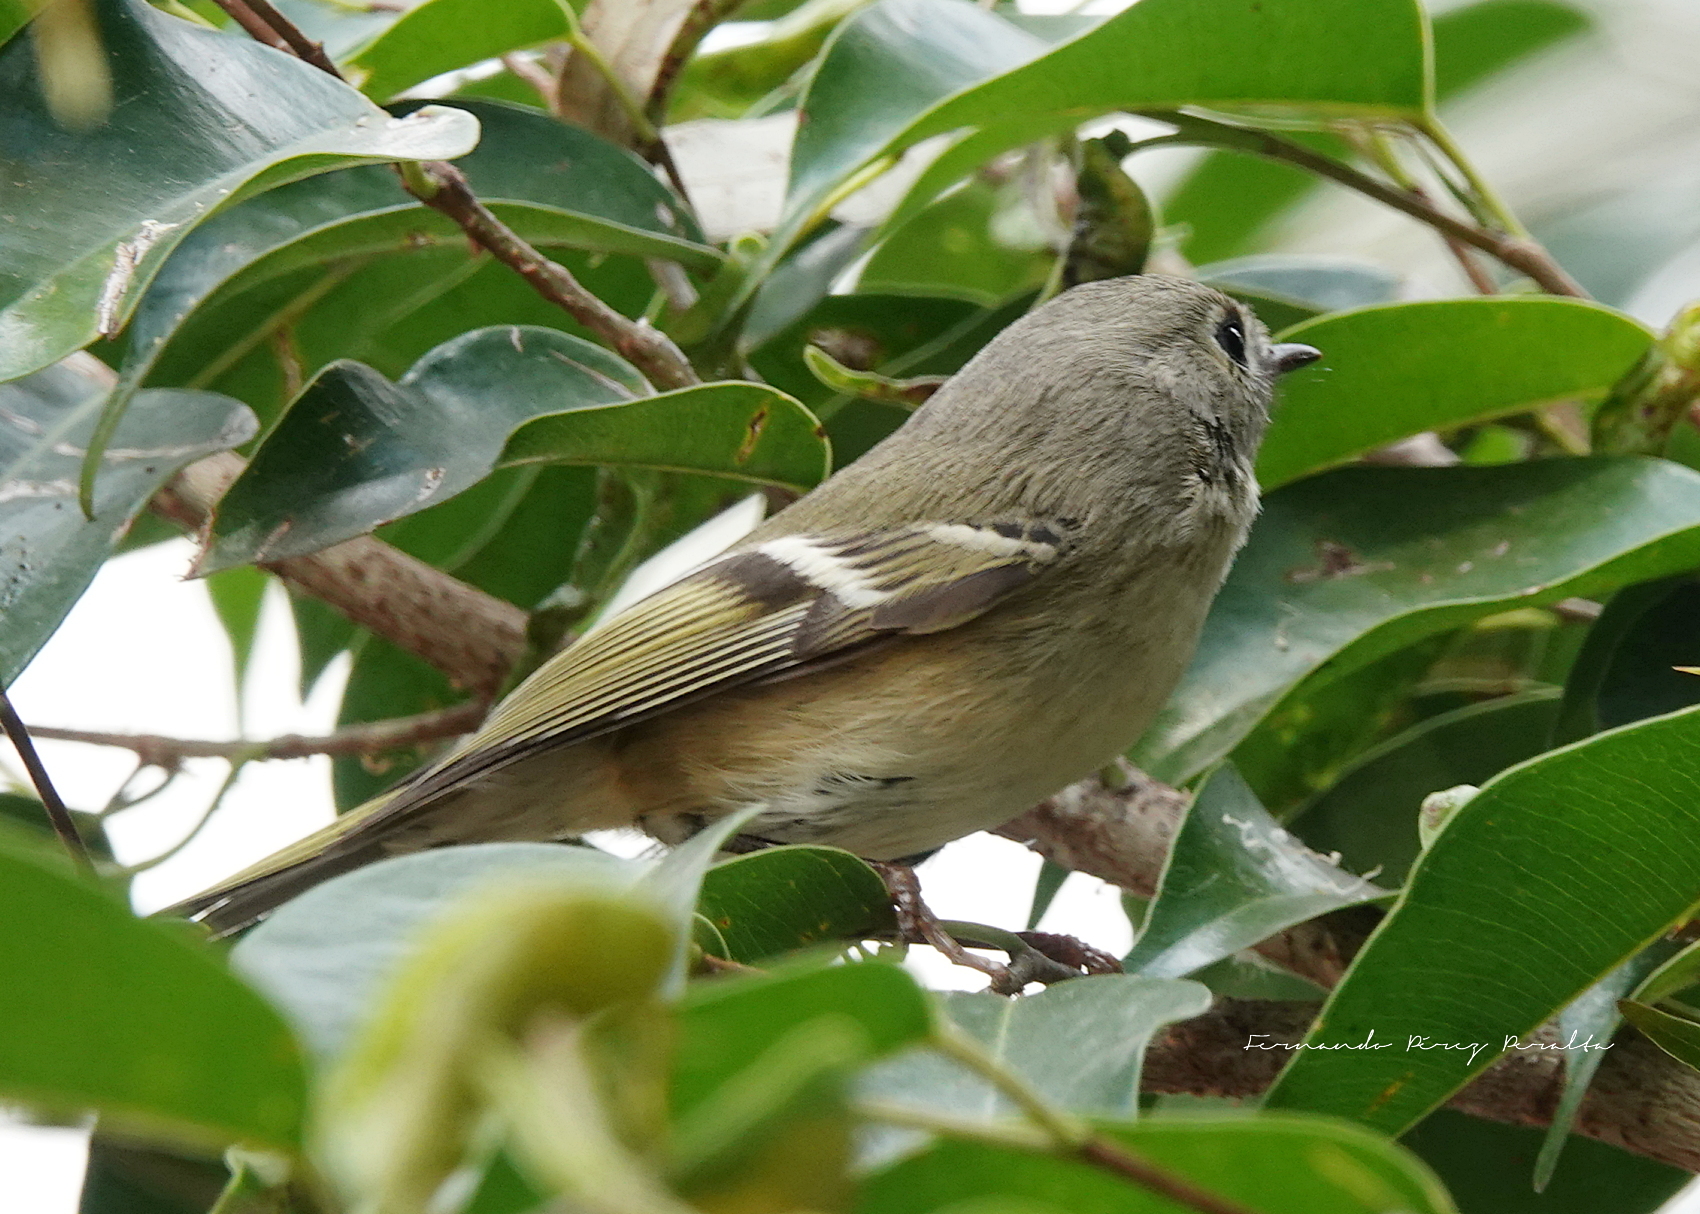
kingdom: Animalia
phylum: Chordata
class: Aves
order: Passeriformes
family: Regulidae
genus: Regulus
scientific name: Regulus calendula
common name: Ruby-crowned kinglet
